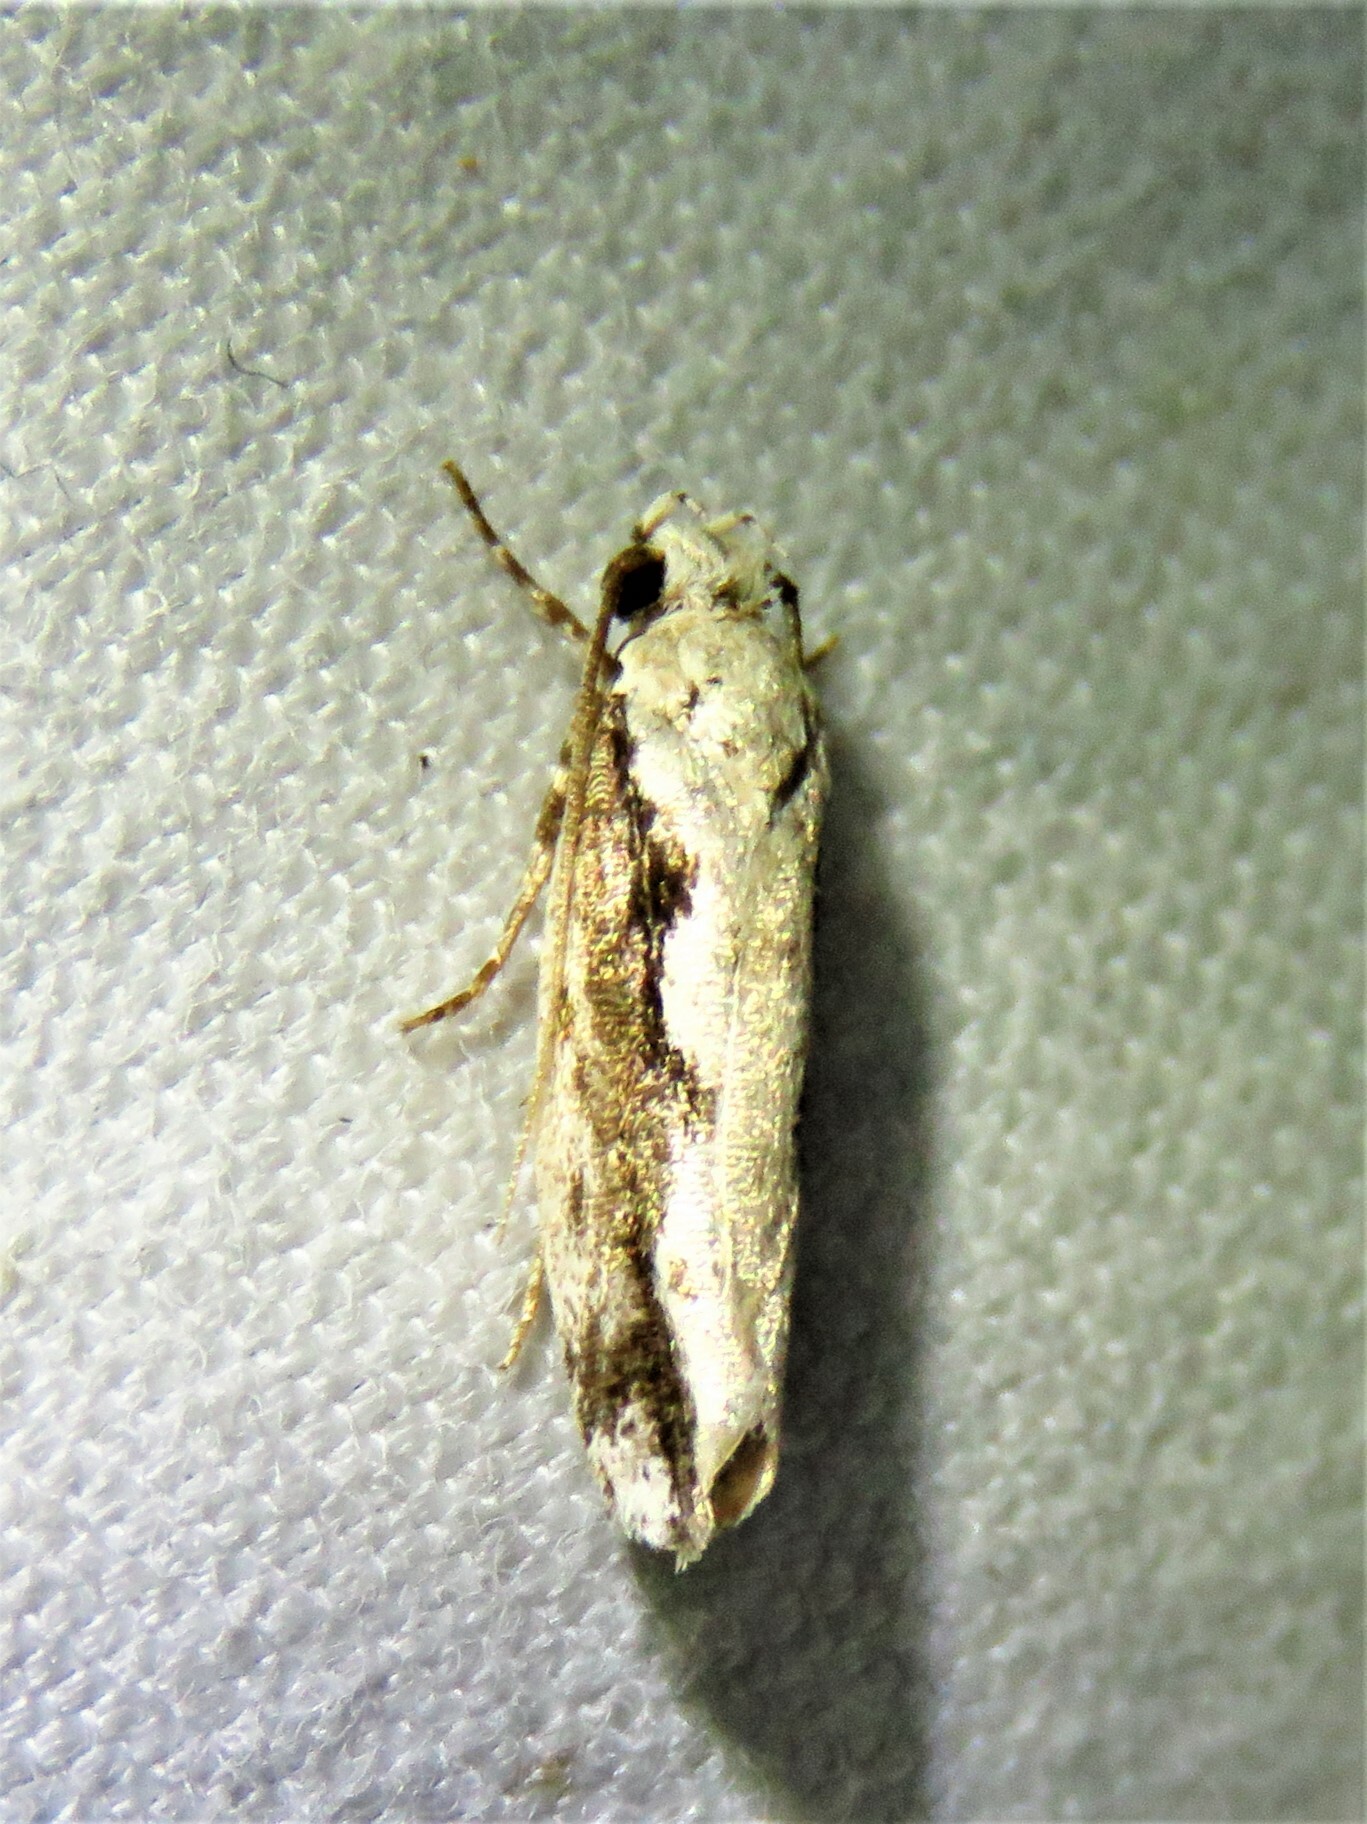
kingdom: Animalia
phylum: Arthropoda
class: Insecta
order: Lepidoptera
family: Ethmiidae
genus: Ethmia
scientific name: Ethmia semiombra
